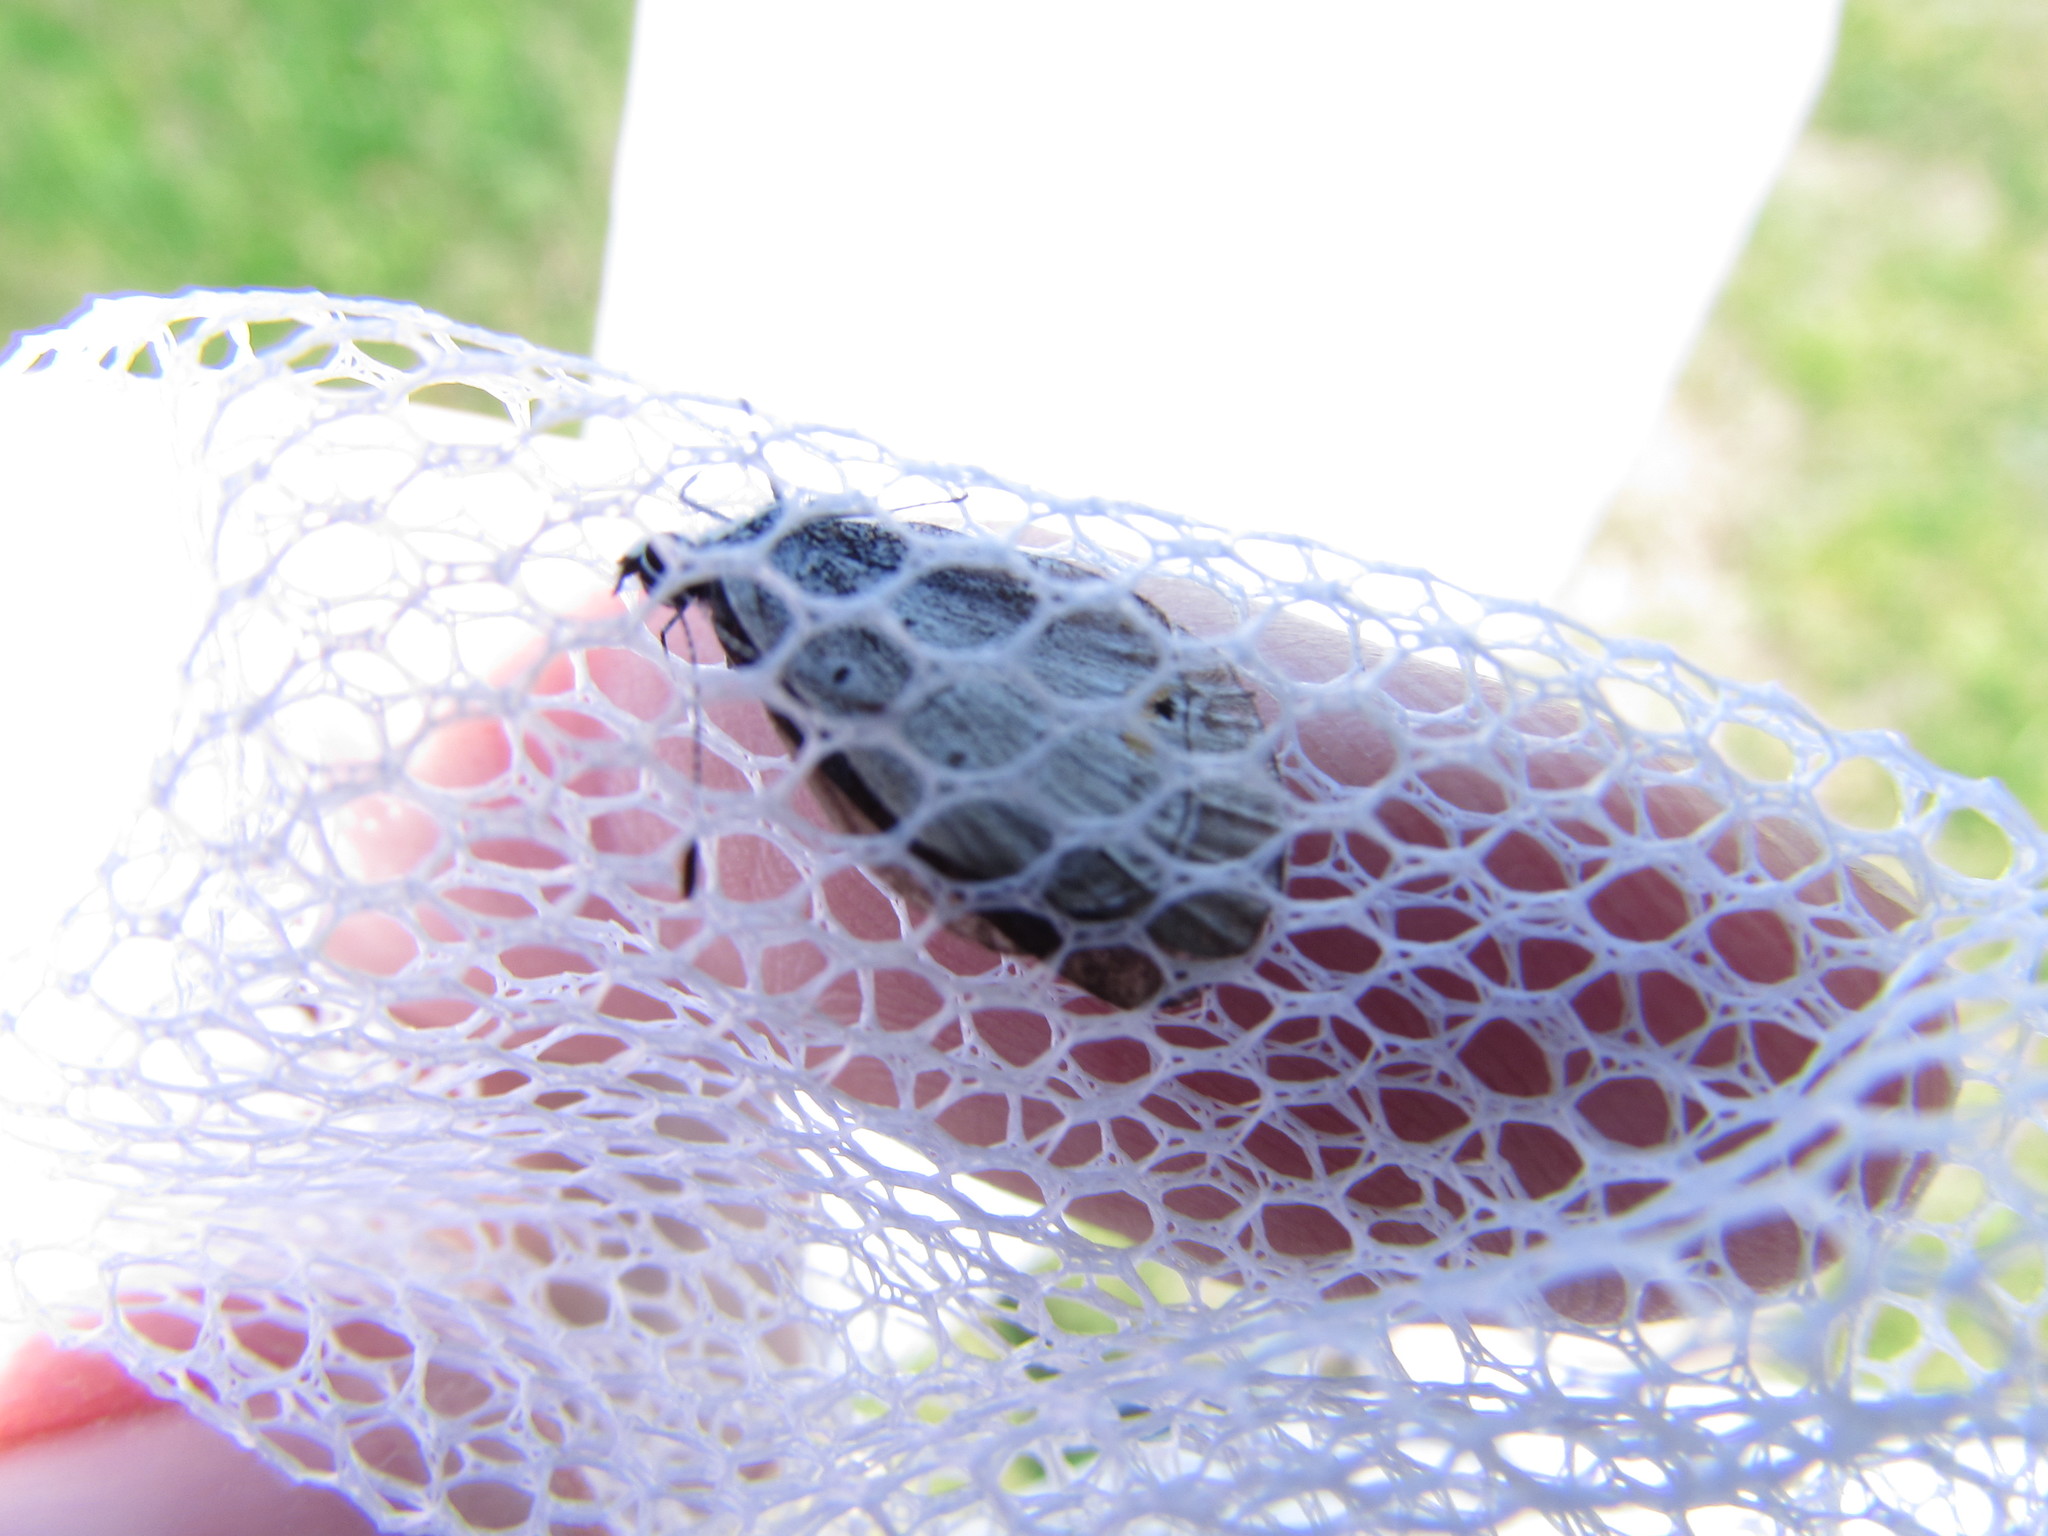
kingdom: Animalia
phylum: Arthropoda
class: Insecta
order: Lepidoptera
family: Lycaenidae
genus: Elkalyce
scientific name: Elkalyce comyntas
